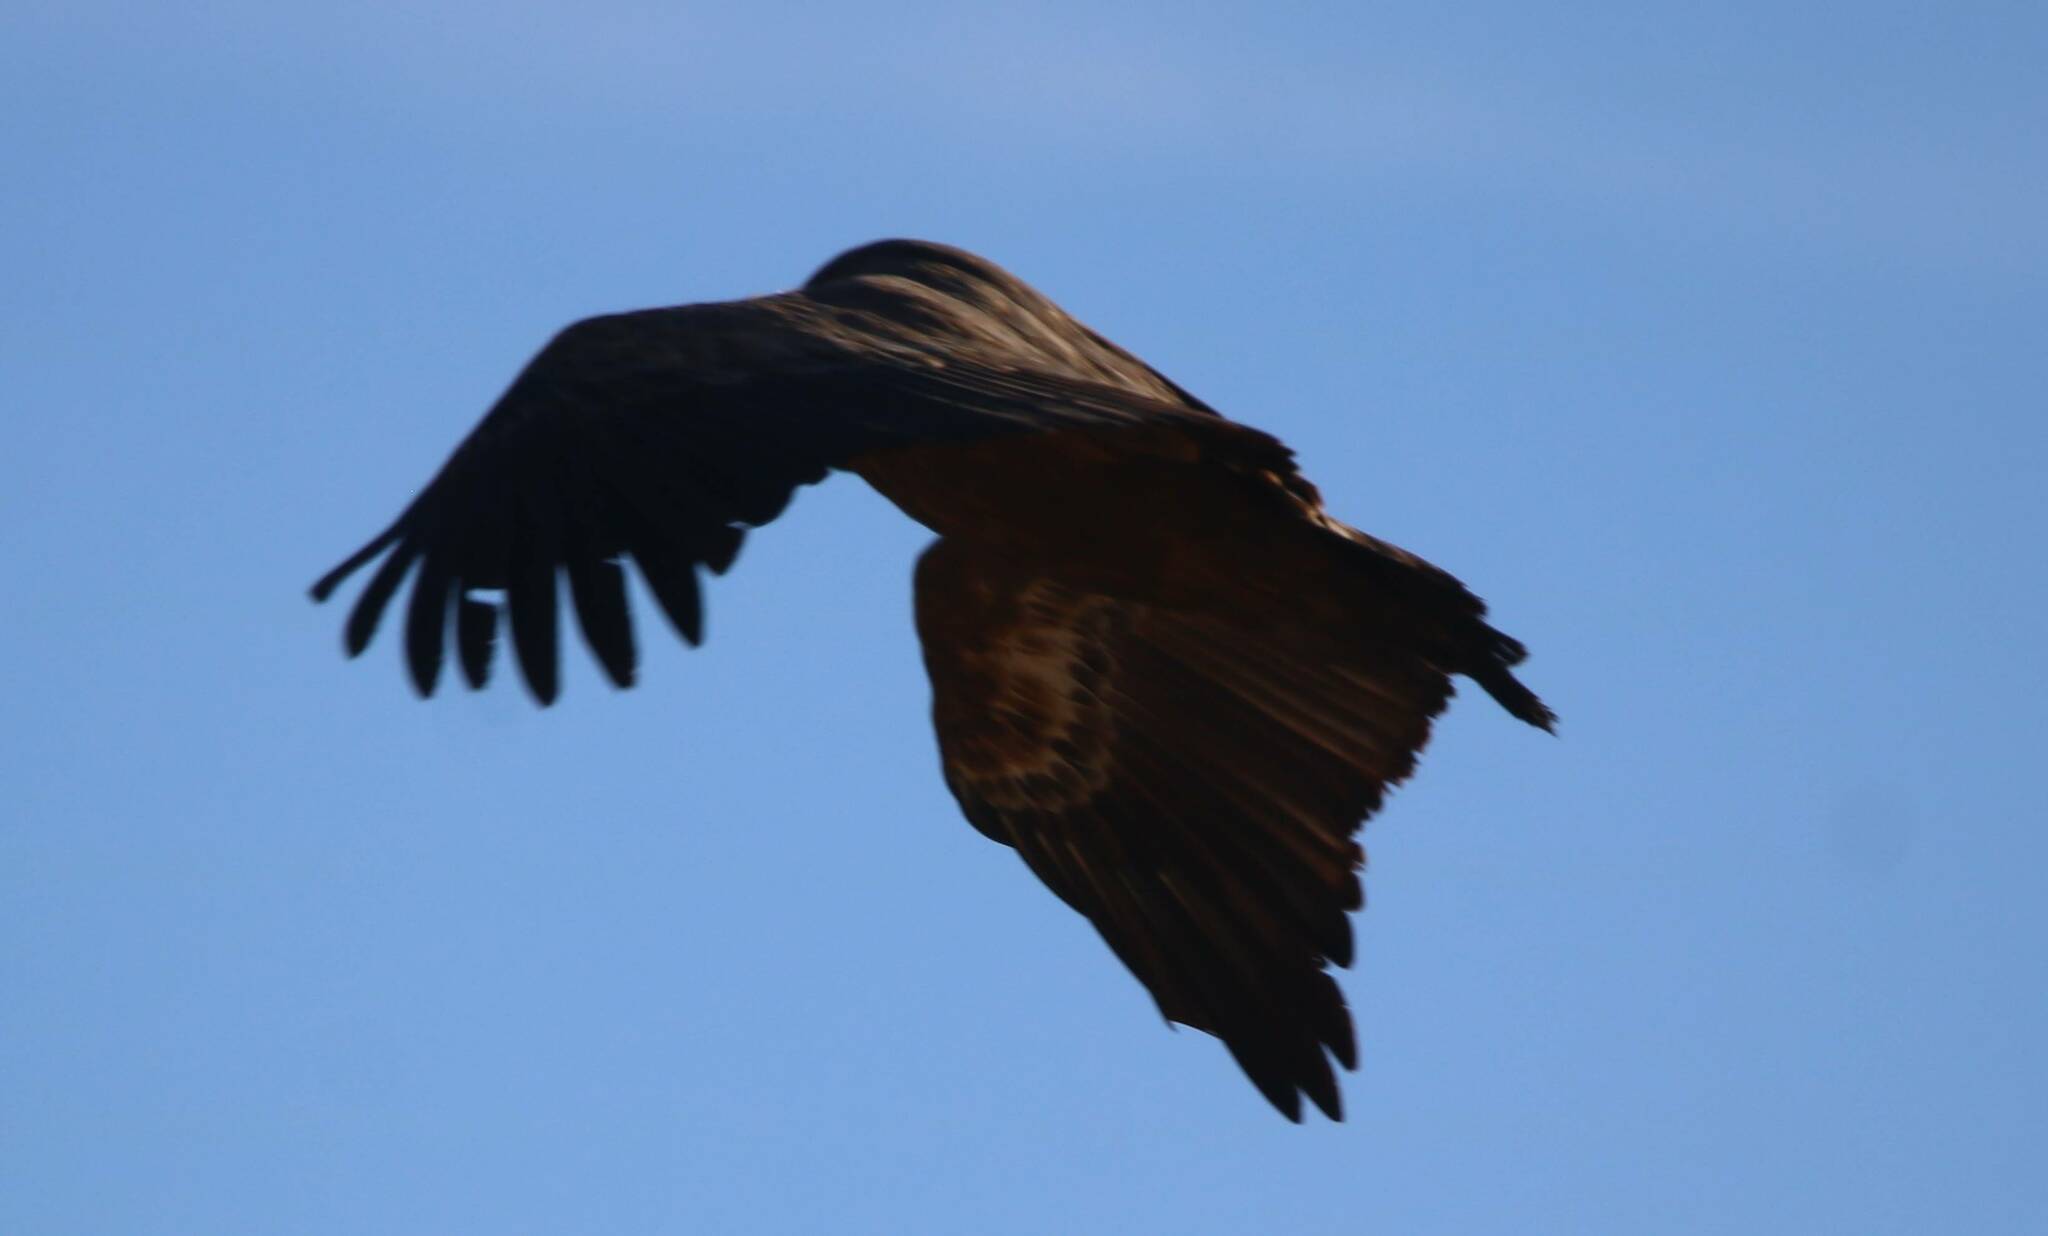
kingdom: Animalia
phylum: Chordata
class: Aves
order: Accipitriformes
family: Accipitridae
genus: Gyps
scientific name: Gyps fulvus
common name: Griffon vulture
